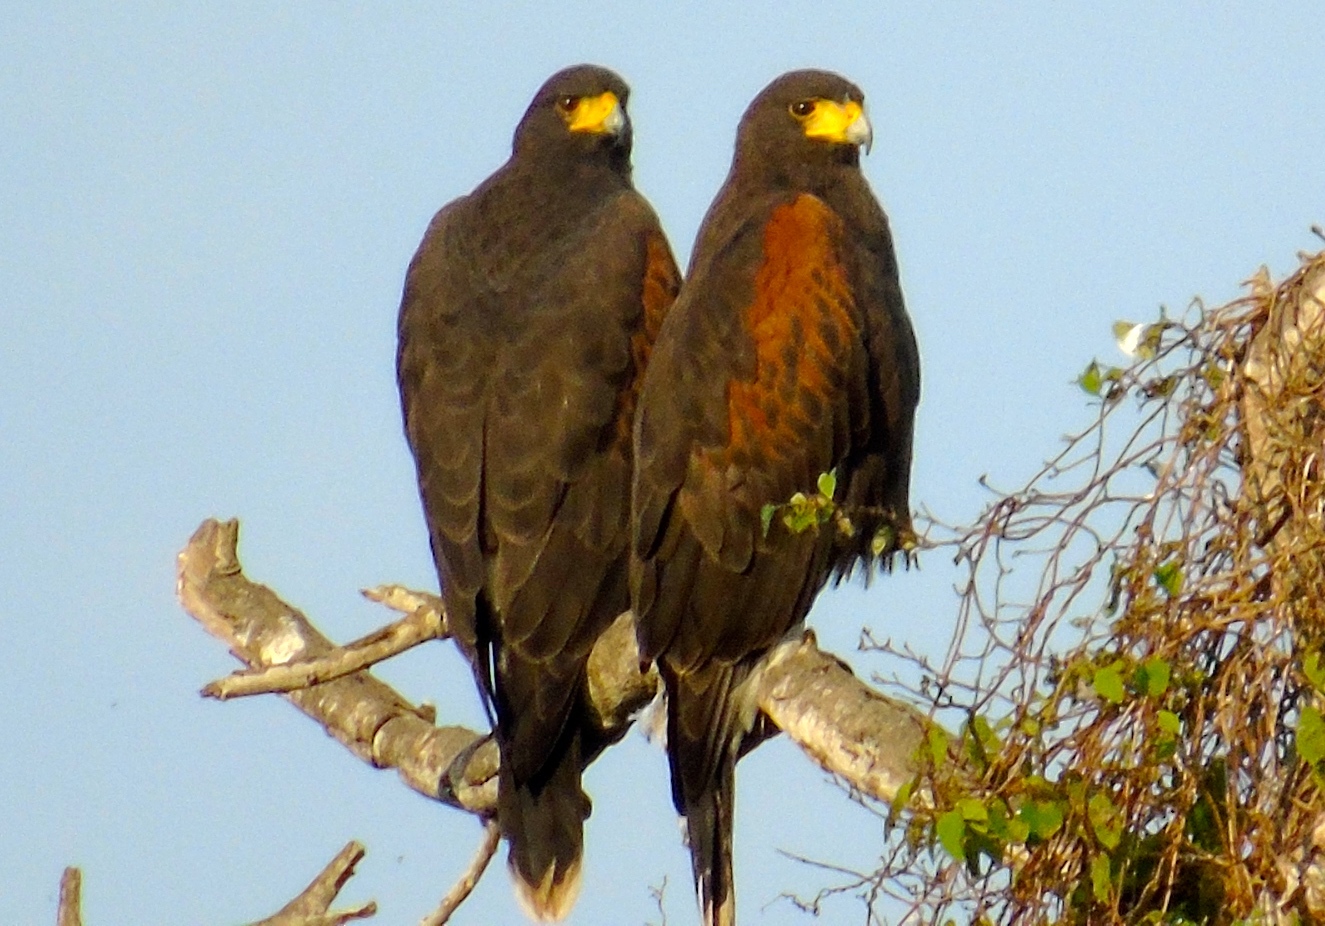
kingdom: Animalia
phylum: Chordata
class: Aves
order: Accipitriformes
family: Accipitridae
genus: Parabuteo
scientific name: Parabuteo unicinctus
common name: Harris's hawk
